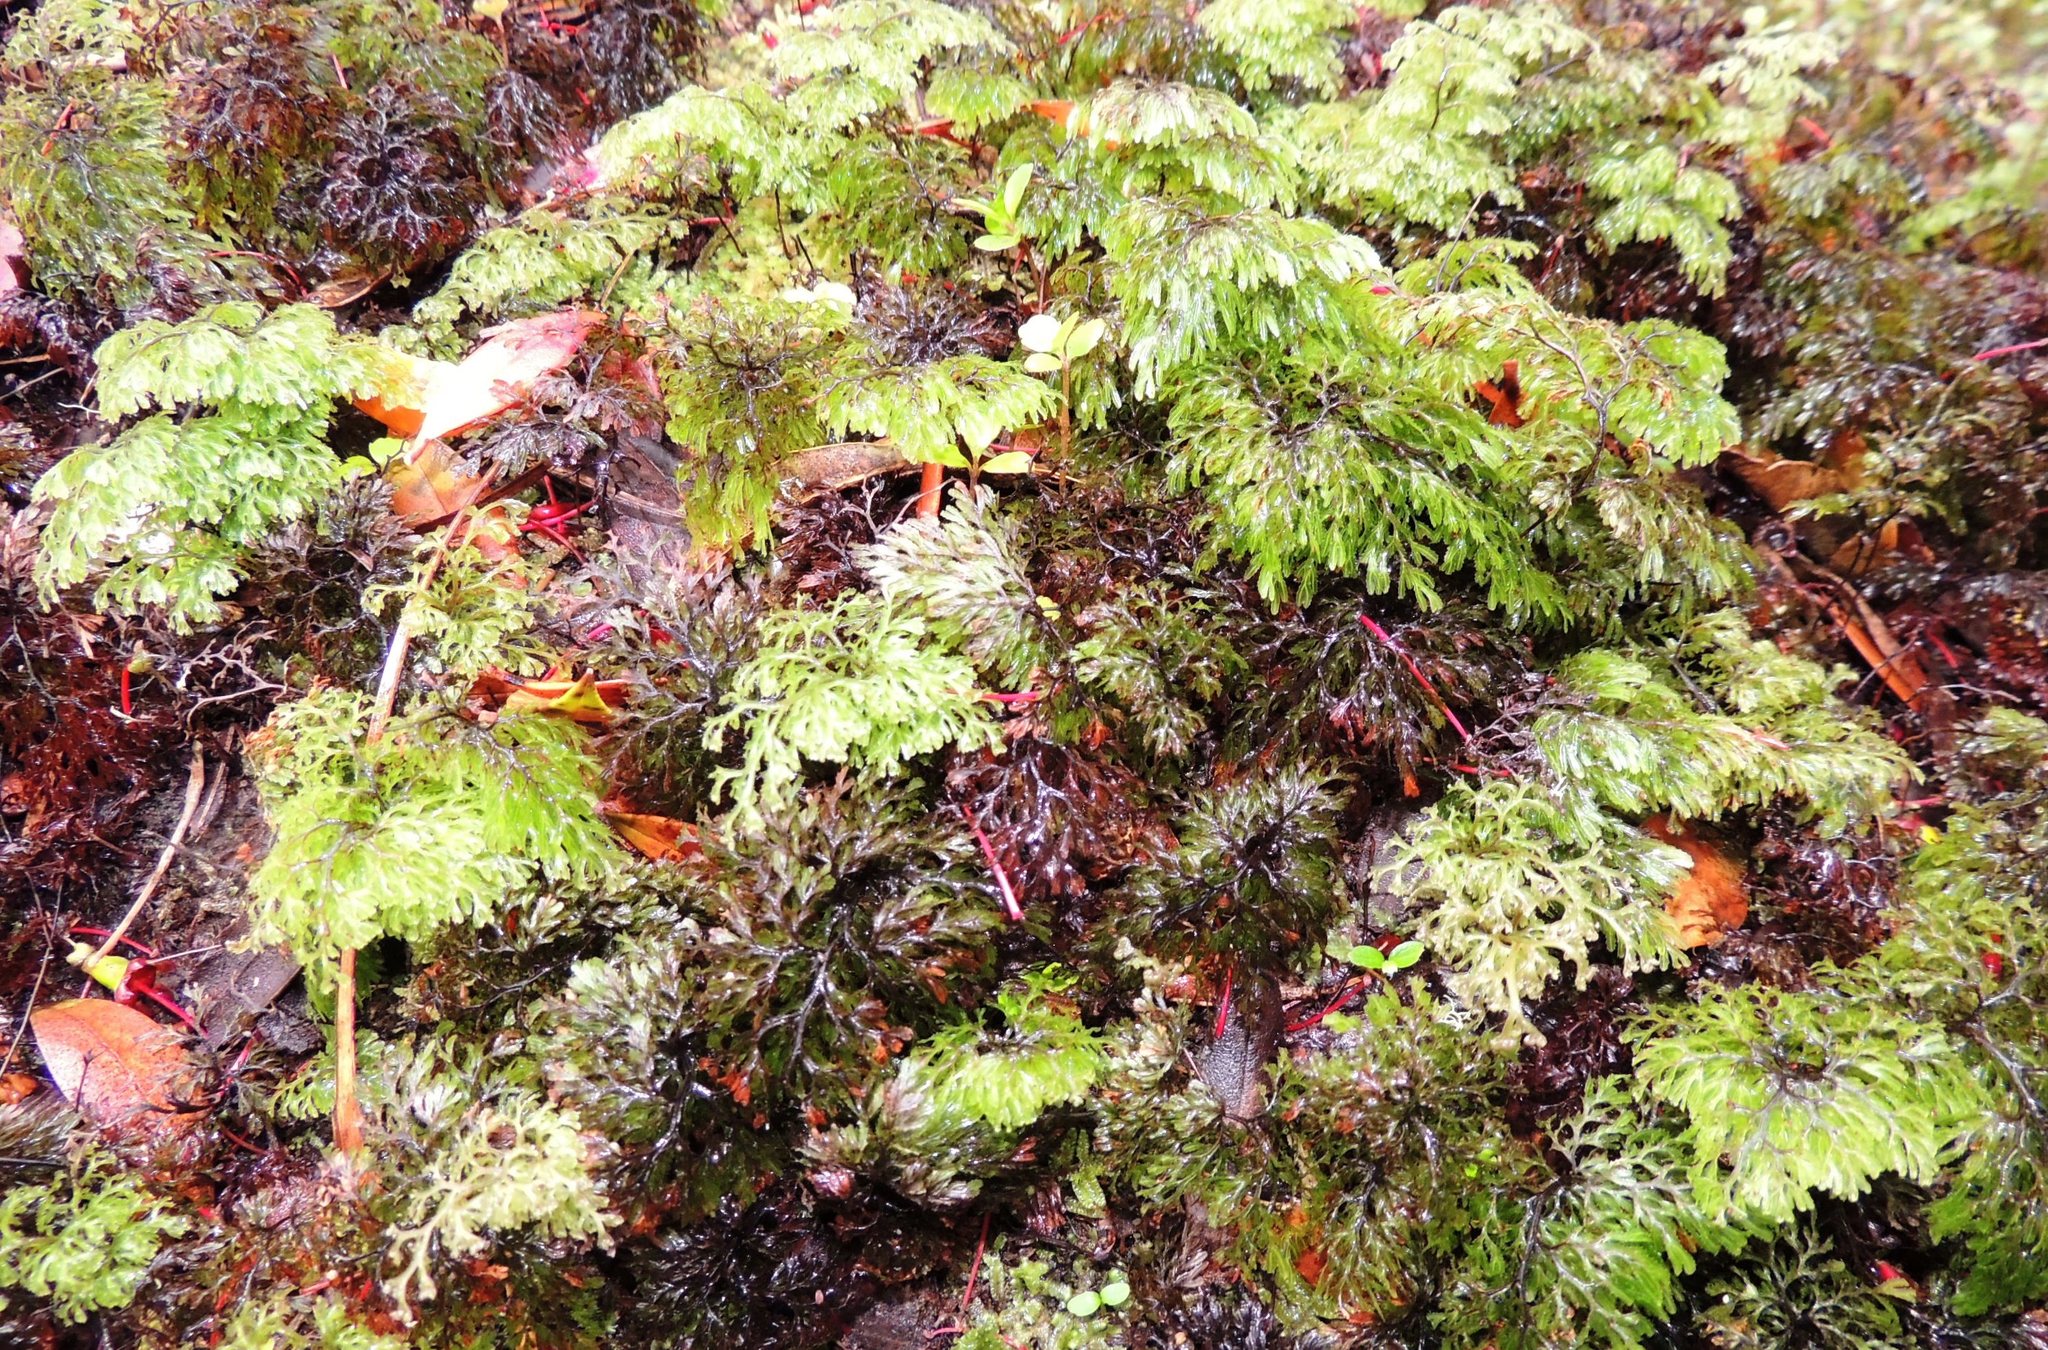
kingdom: Plantae
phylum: Tracheophyta
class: Polypodiopsida
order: Hymenophyllales
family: Hymenophyllaceae
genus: Hymenophyllum
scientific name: Hymenophyllum multifidum
